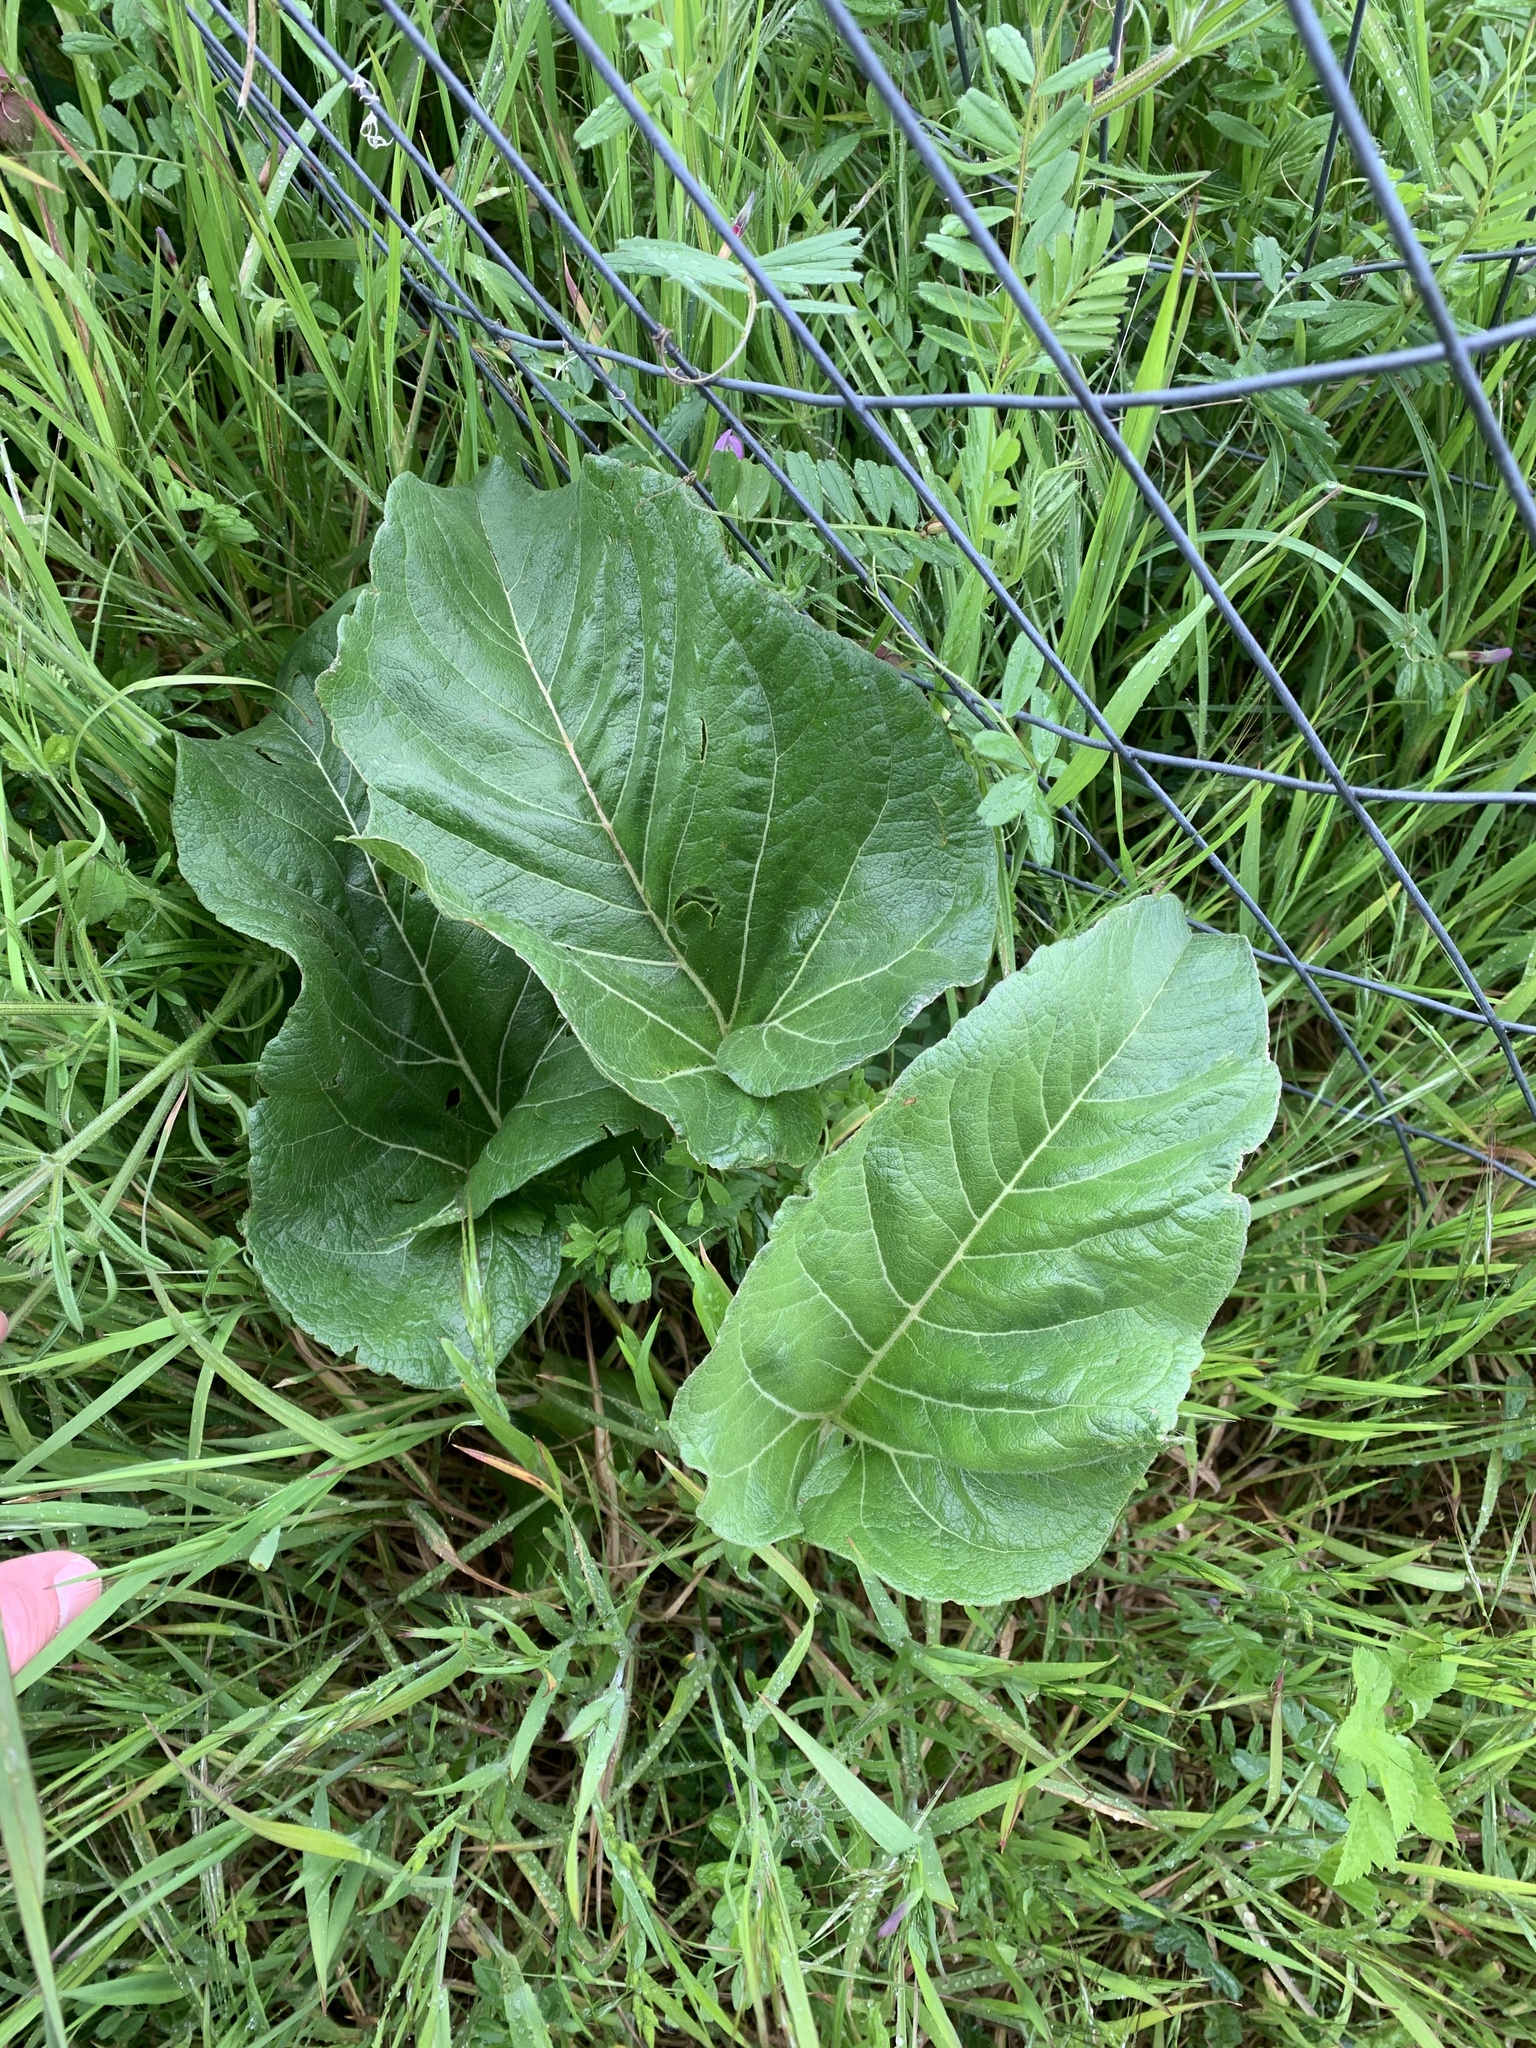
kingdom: Plantae
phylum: Tracheophyta
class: Magnoliopsida
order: Asterales
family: Asteraceae
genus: Balsamorhiza
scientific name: Balsamorhiza deltoidea
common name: Deltoid balsamroot
